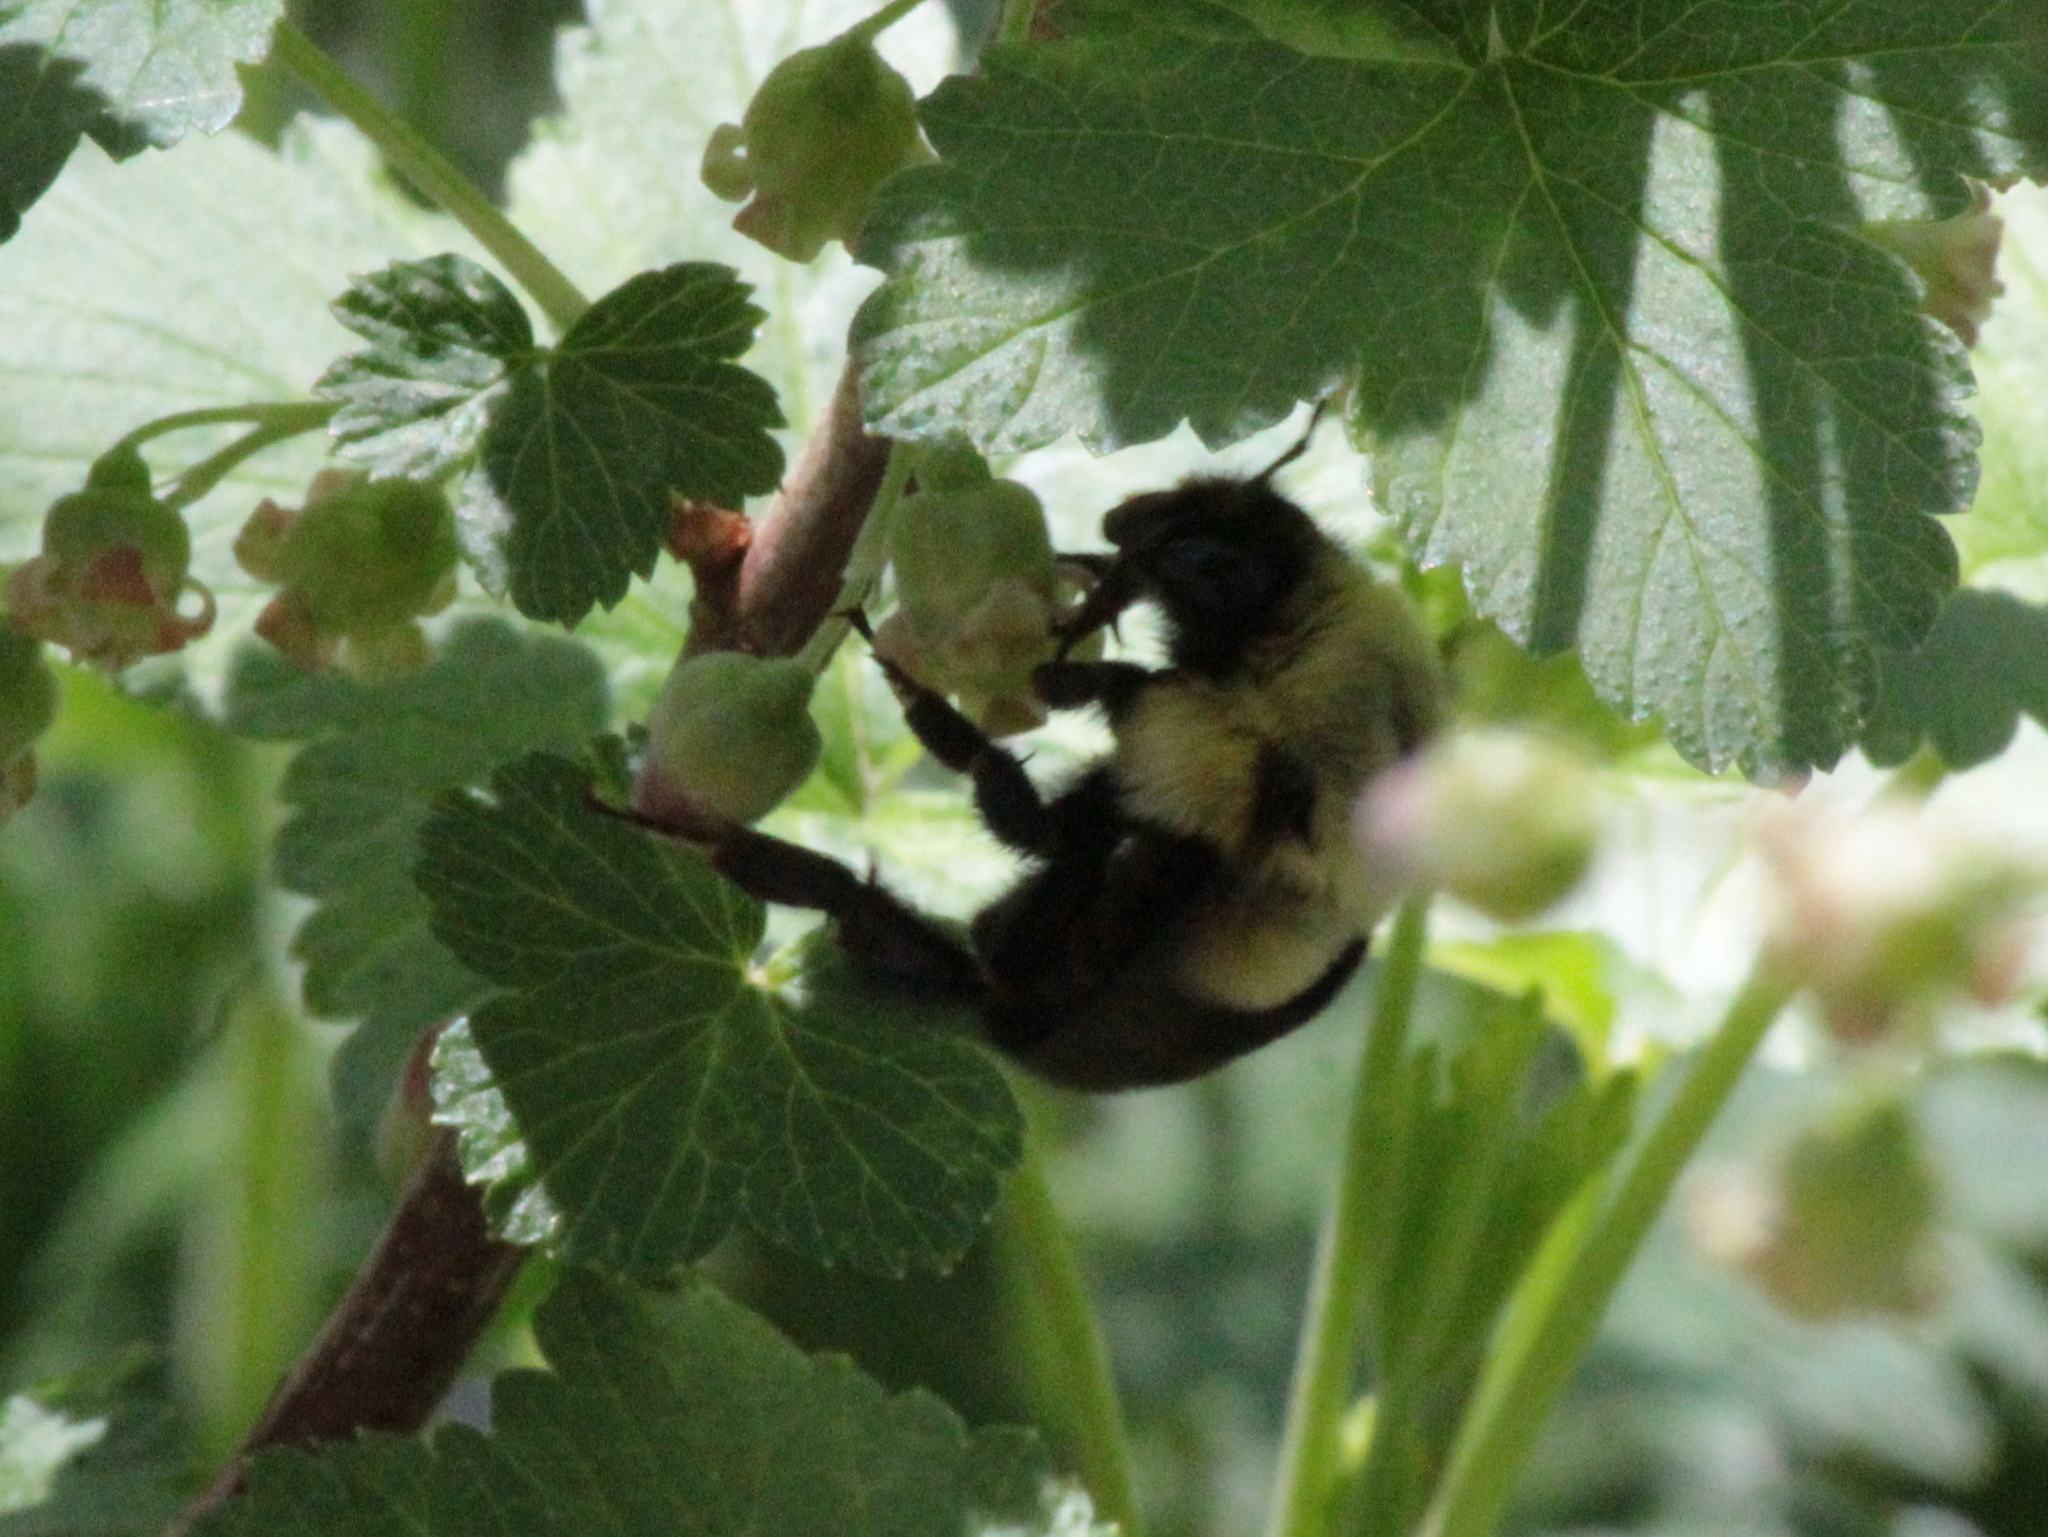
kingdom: Animalia
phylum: Arthropoda
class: Insecta
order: Hymenoptera
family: Apidae
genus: Bombus
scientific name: Bombus impatiens
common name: Common eastern bumble bee
